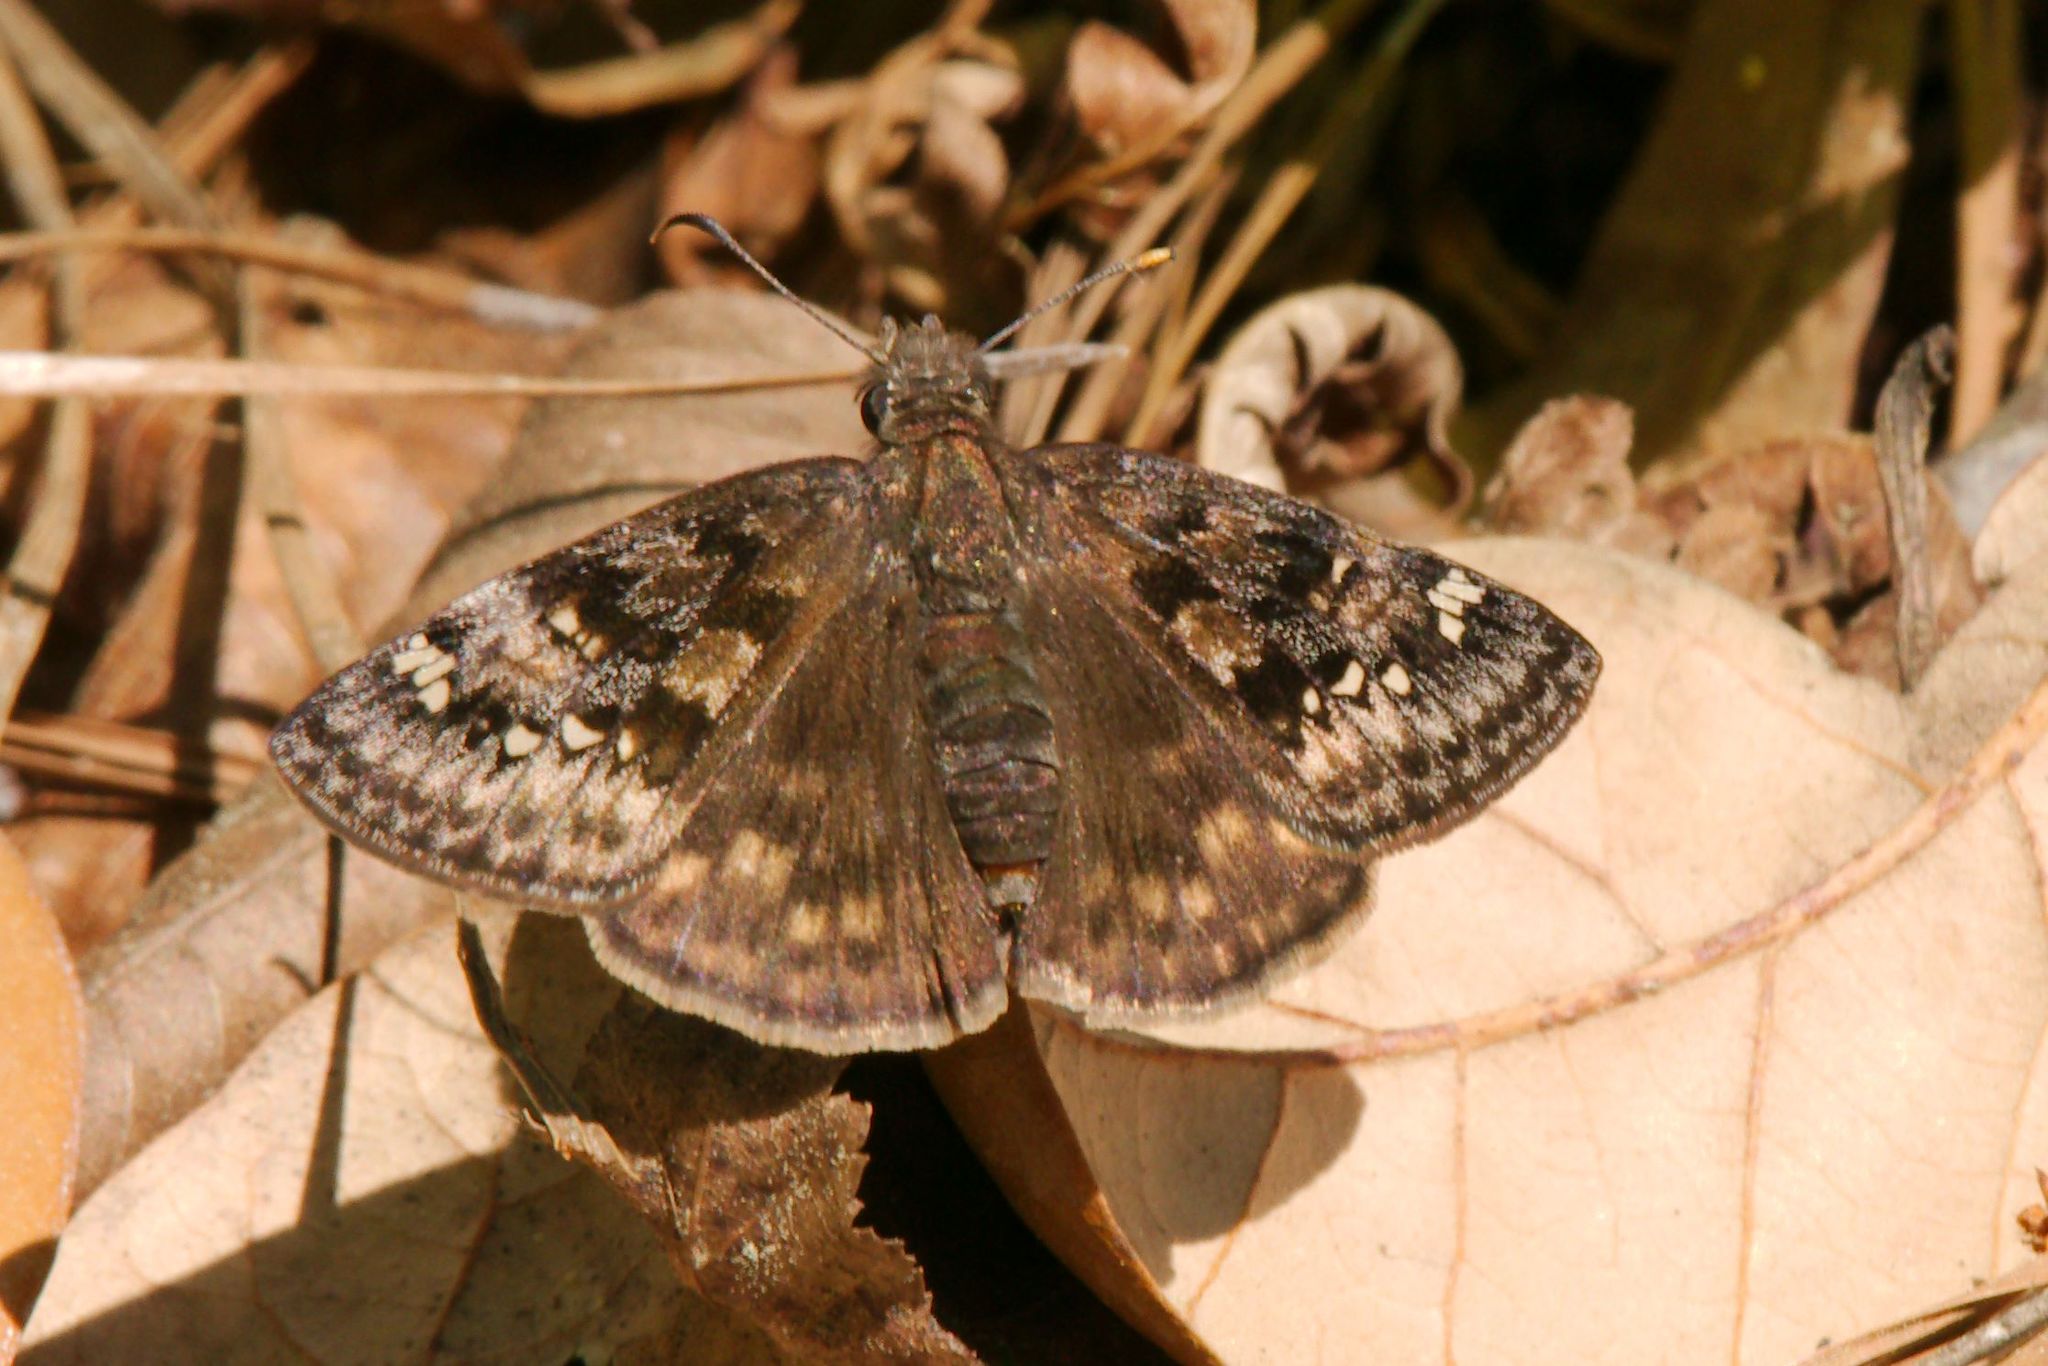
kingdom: Animalia
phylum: Arthropoda
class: Insecta
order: Lepidoptera
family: Hesperiidae
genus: Erynnis
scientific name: Erynnis juvenalis
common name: Juvenal's duskywing
